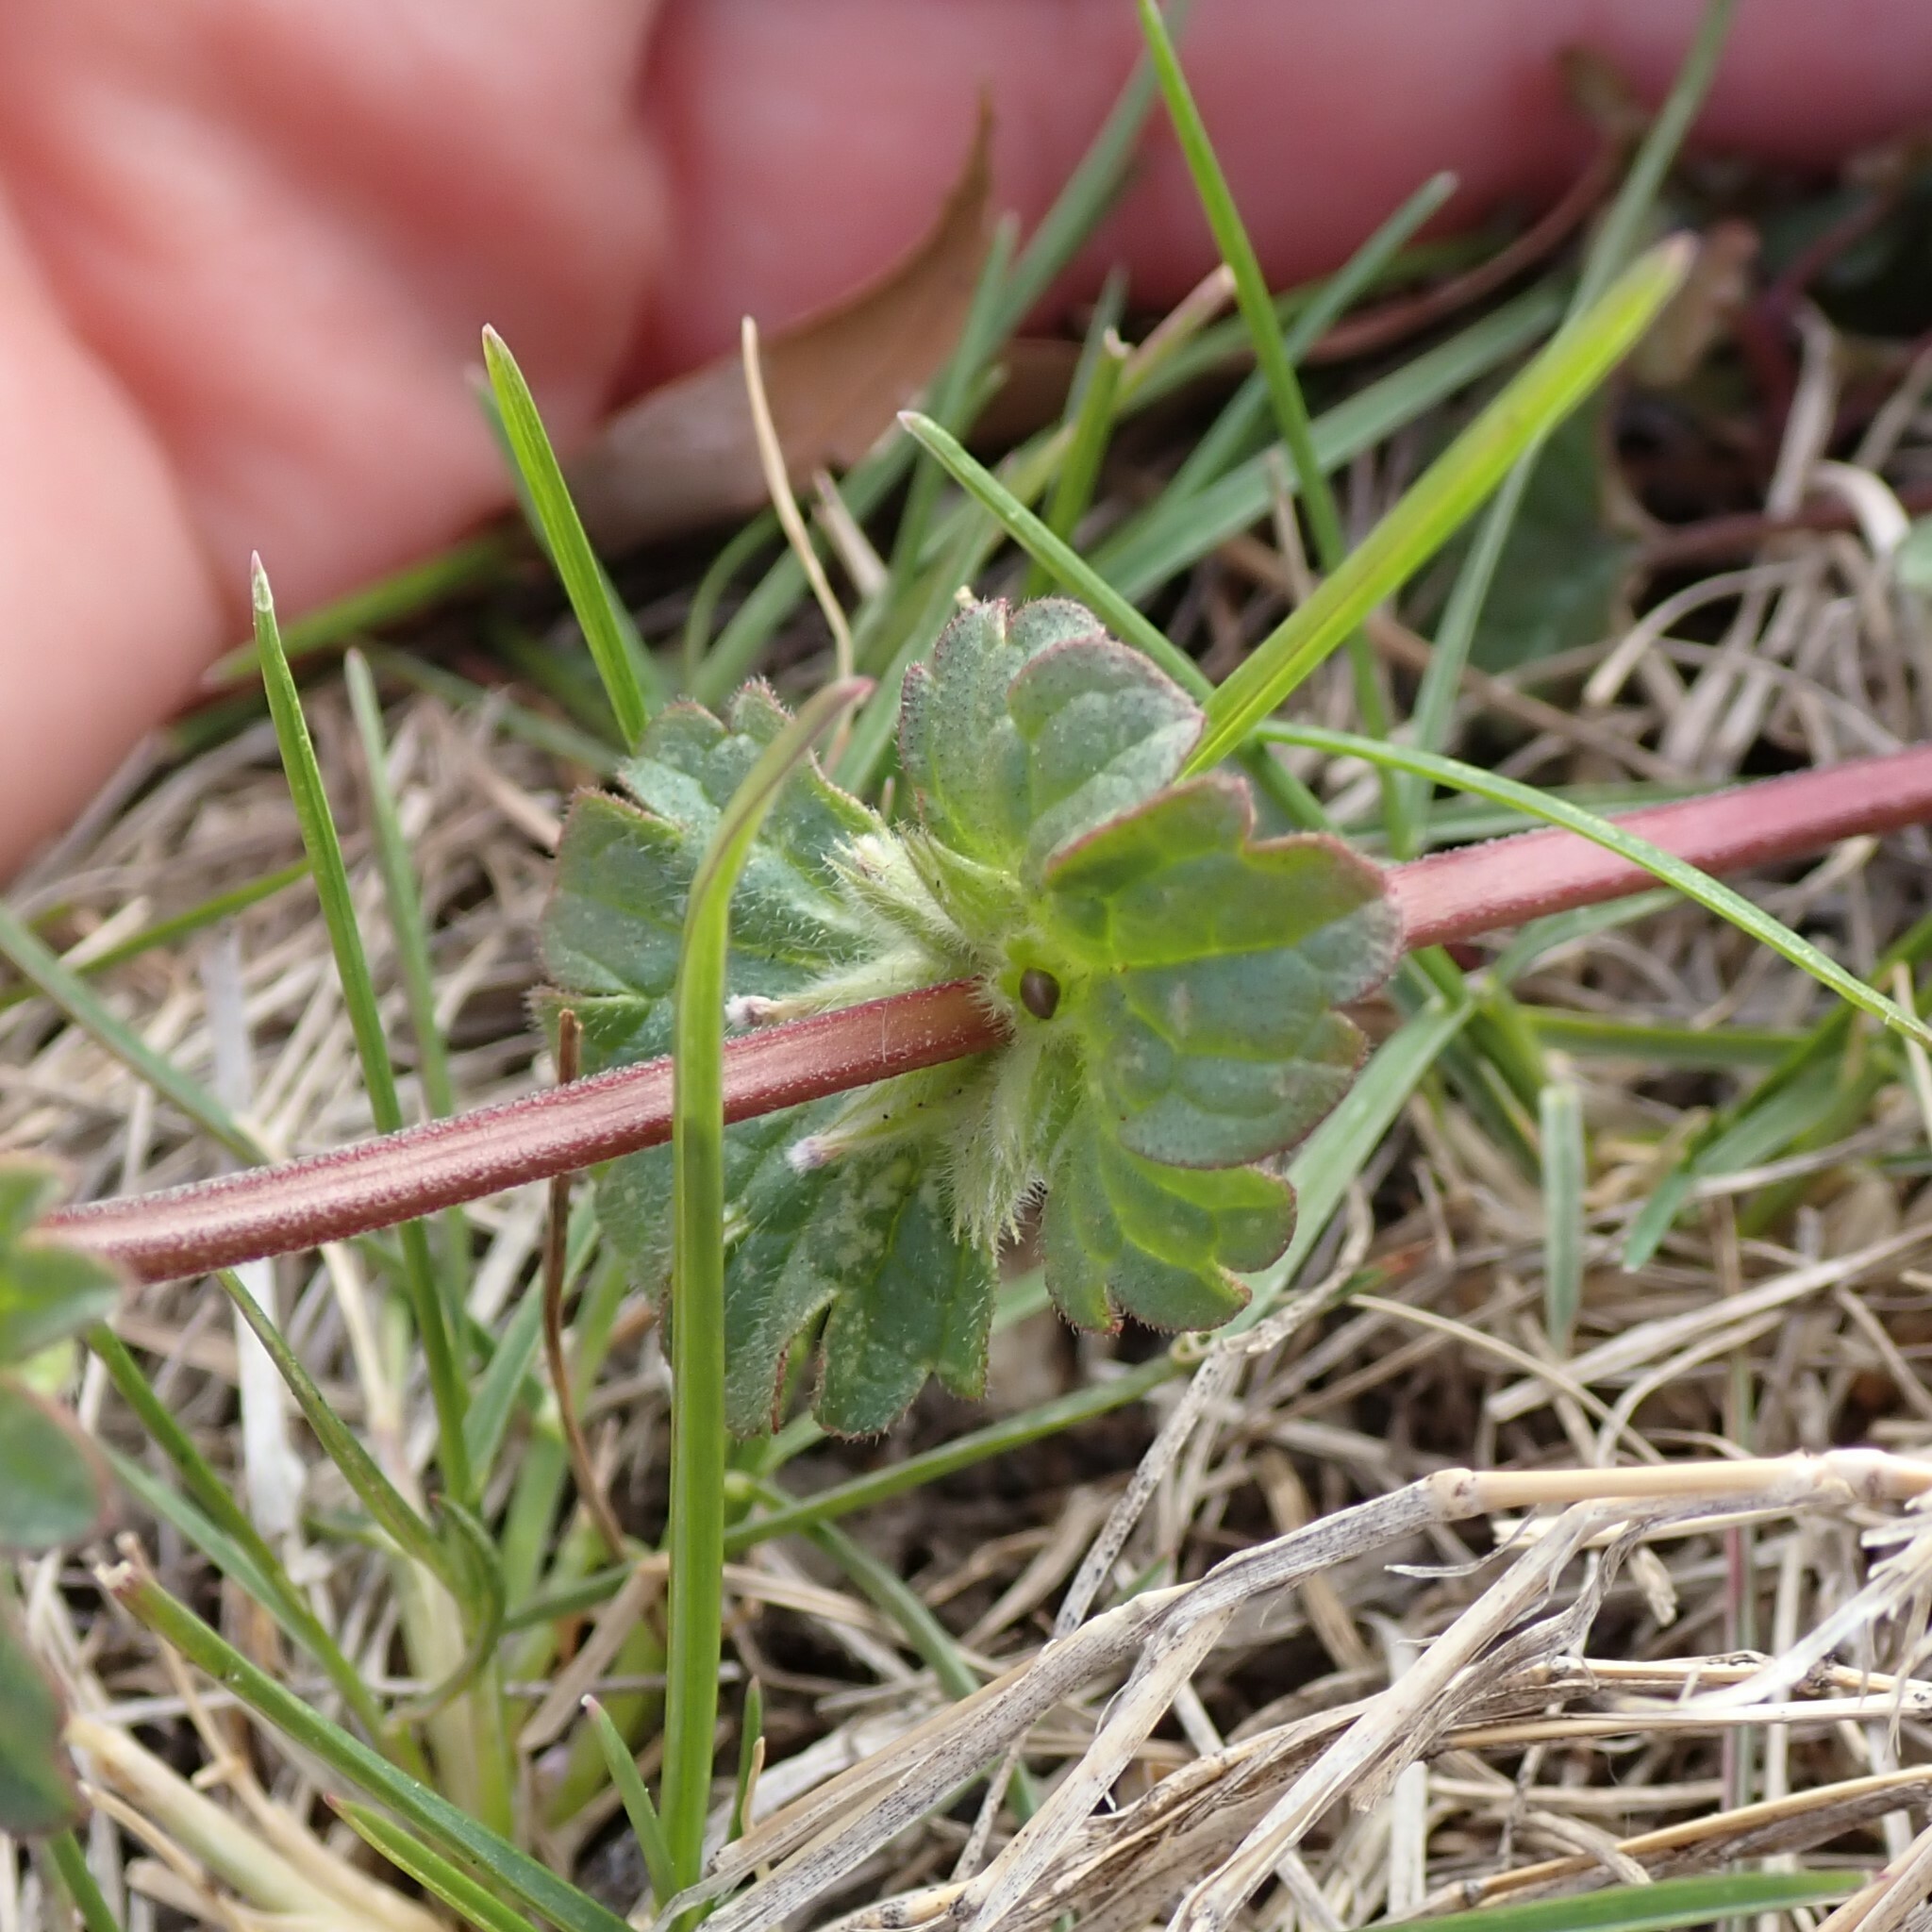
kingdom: Plantae
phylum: Tracheophyta
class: Magnoliopsida
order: Lamiales
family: Lamiaceae
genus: Lamium
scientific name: Lamium amplexicaule
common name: Henbit dead-nettle
